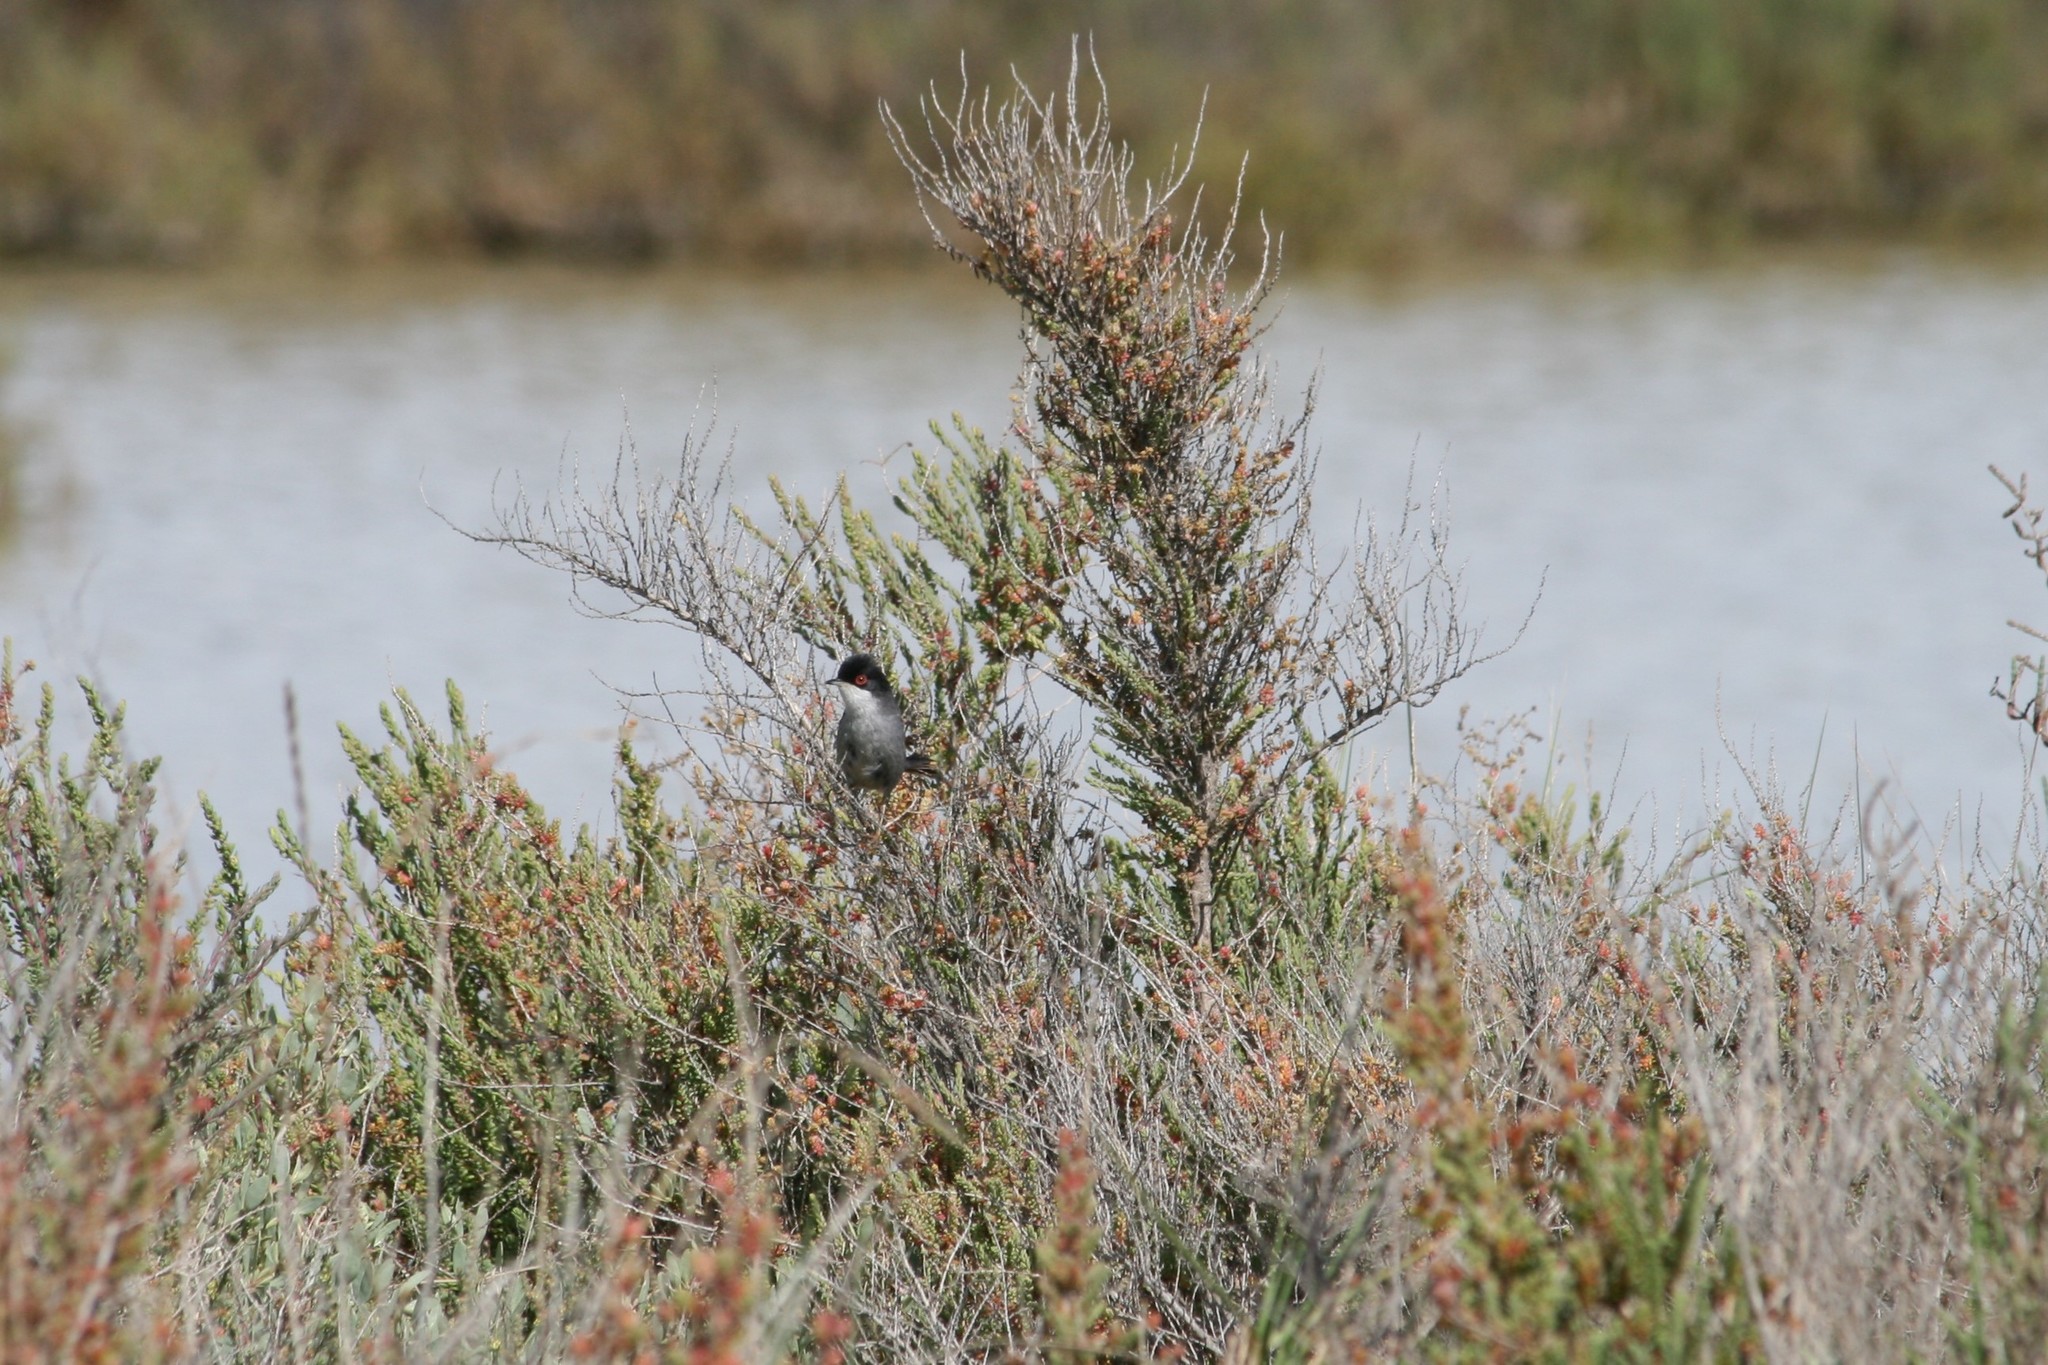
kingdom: Animalia
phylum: Chordata
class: Aves
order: Passeriformes
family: Sylviidae
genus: Curruca
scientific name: Curruca melanocephala
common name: Sardinian warbler
